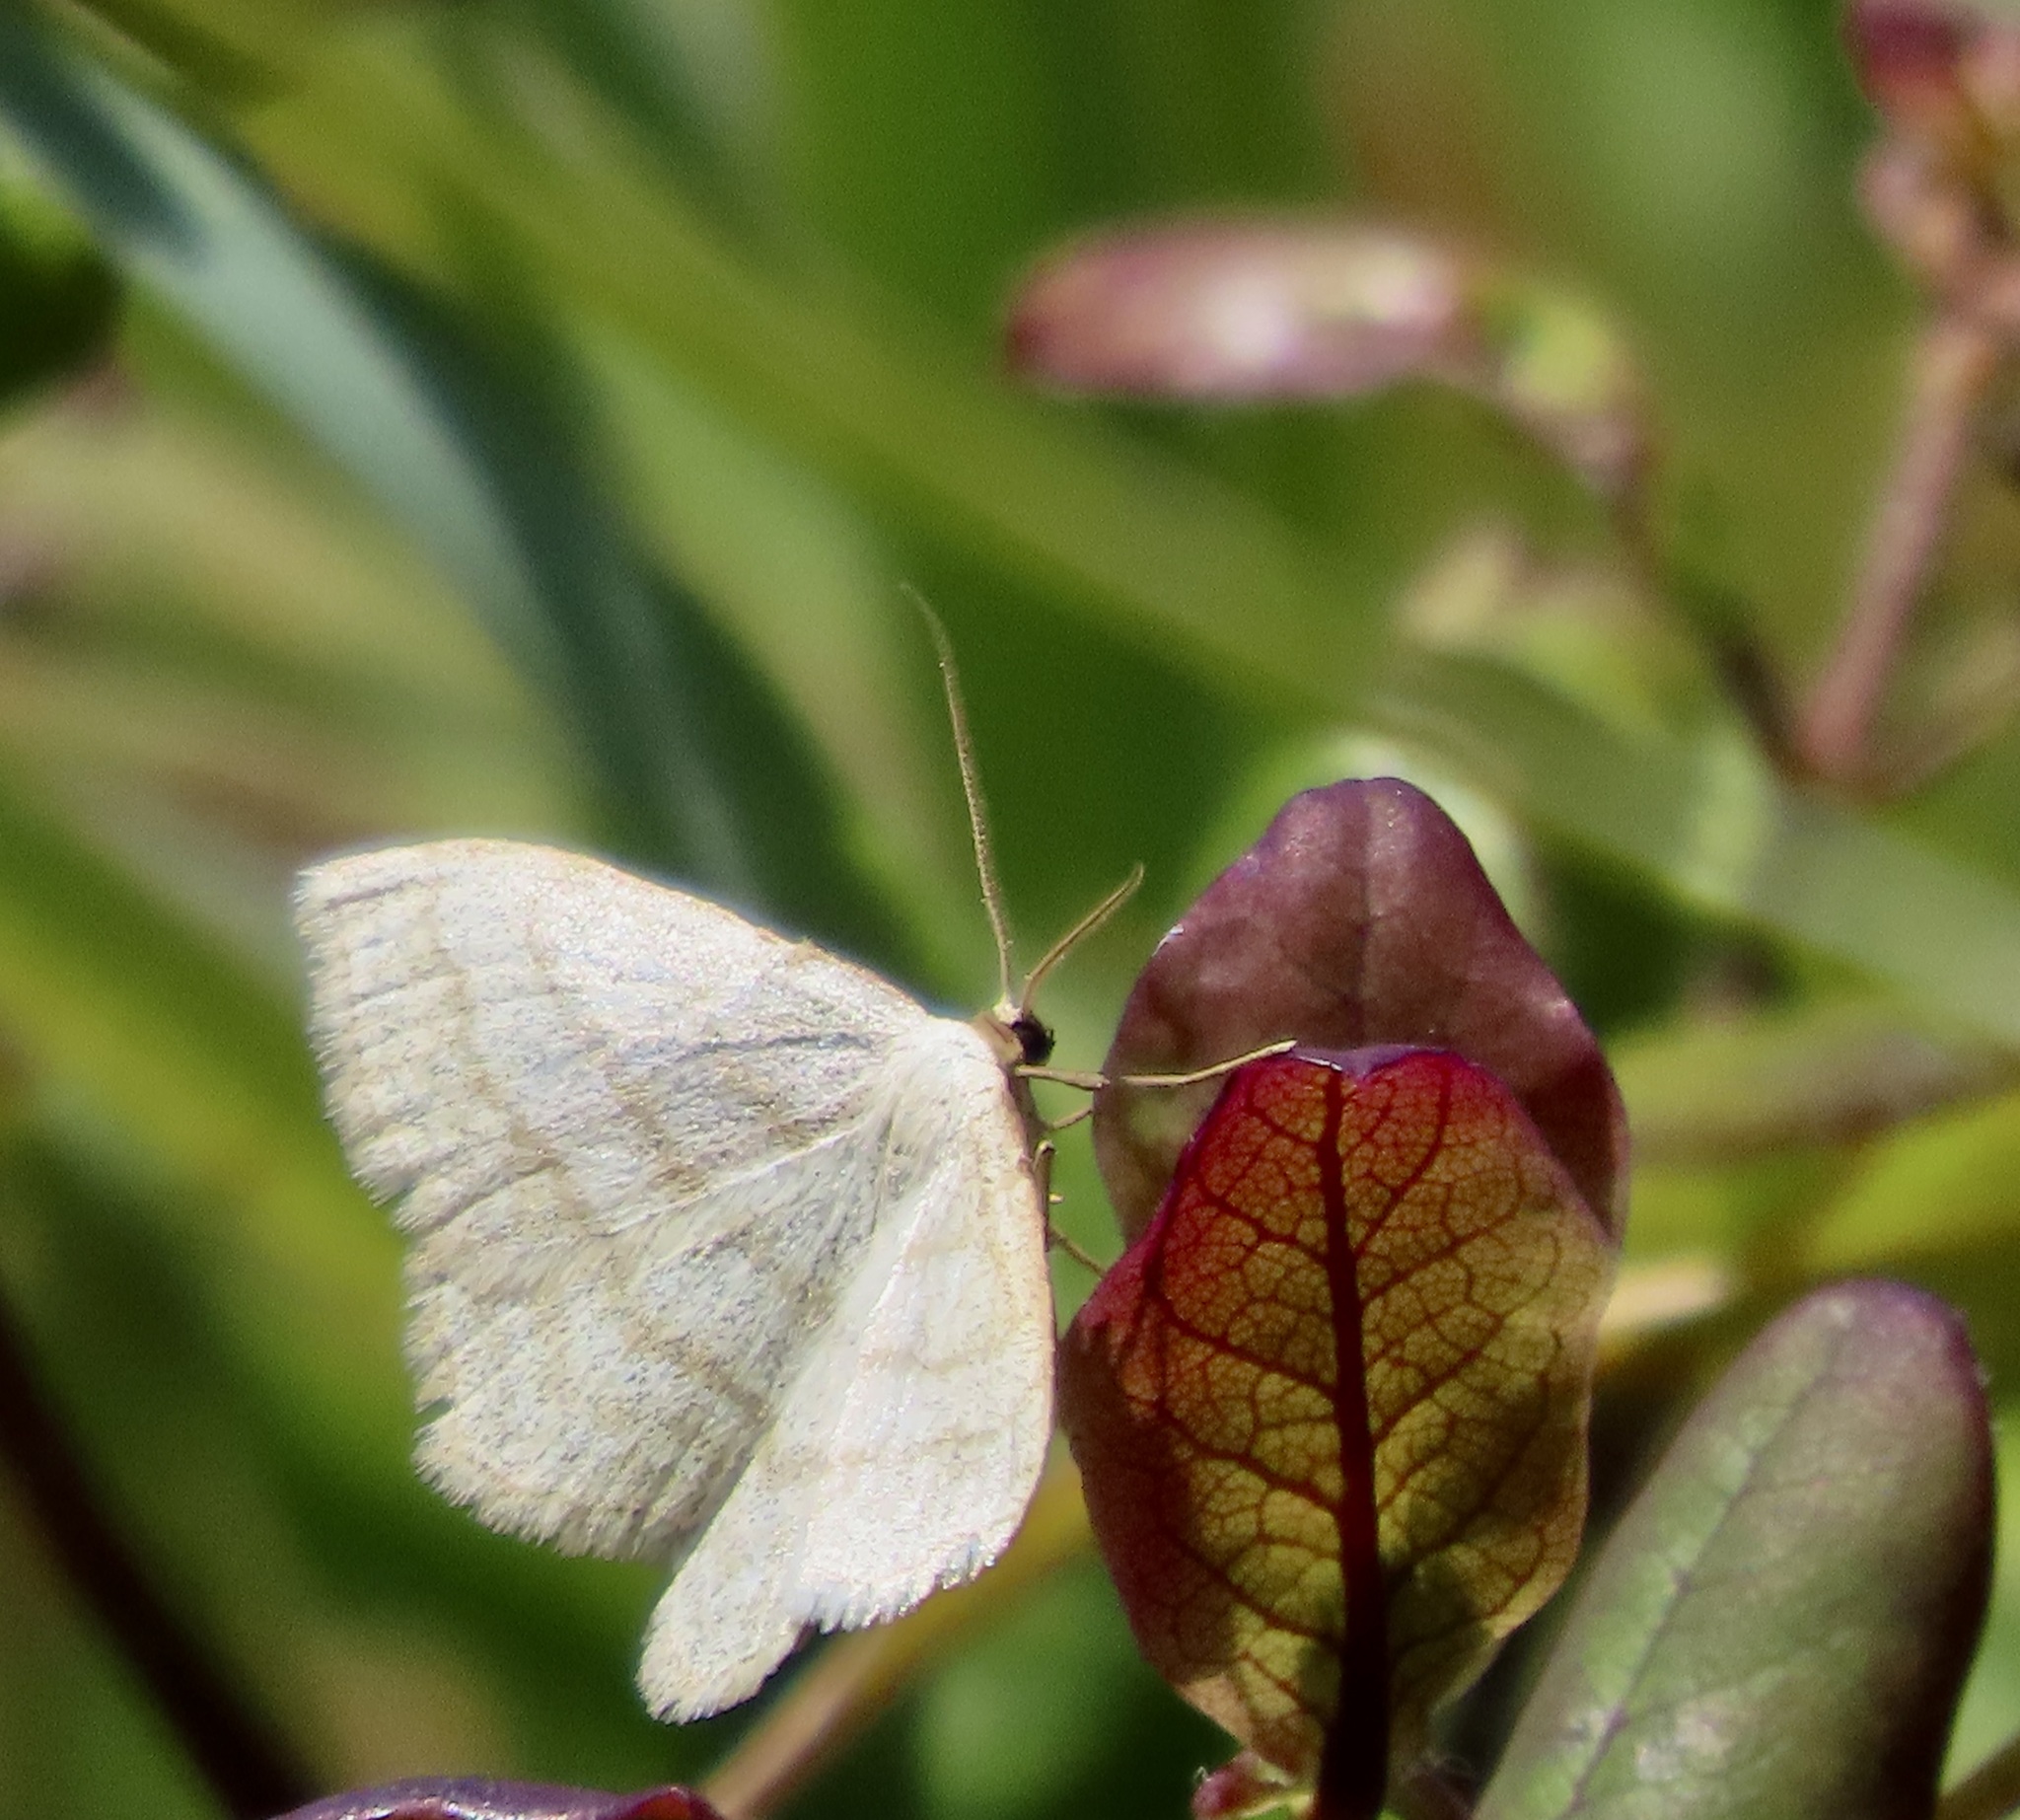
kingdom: Animalia
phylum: Arthropoda
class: Insecta
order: Lepidoptera
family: Geometridae
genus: Scopula
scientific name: Scopula junctaria
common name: Simple wave
